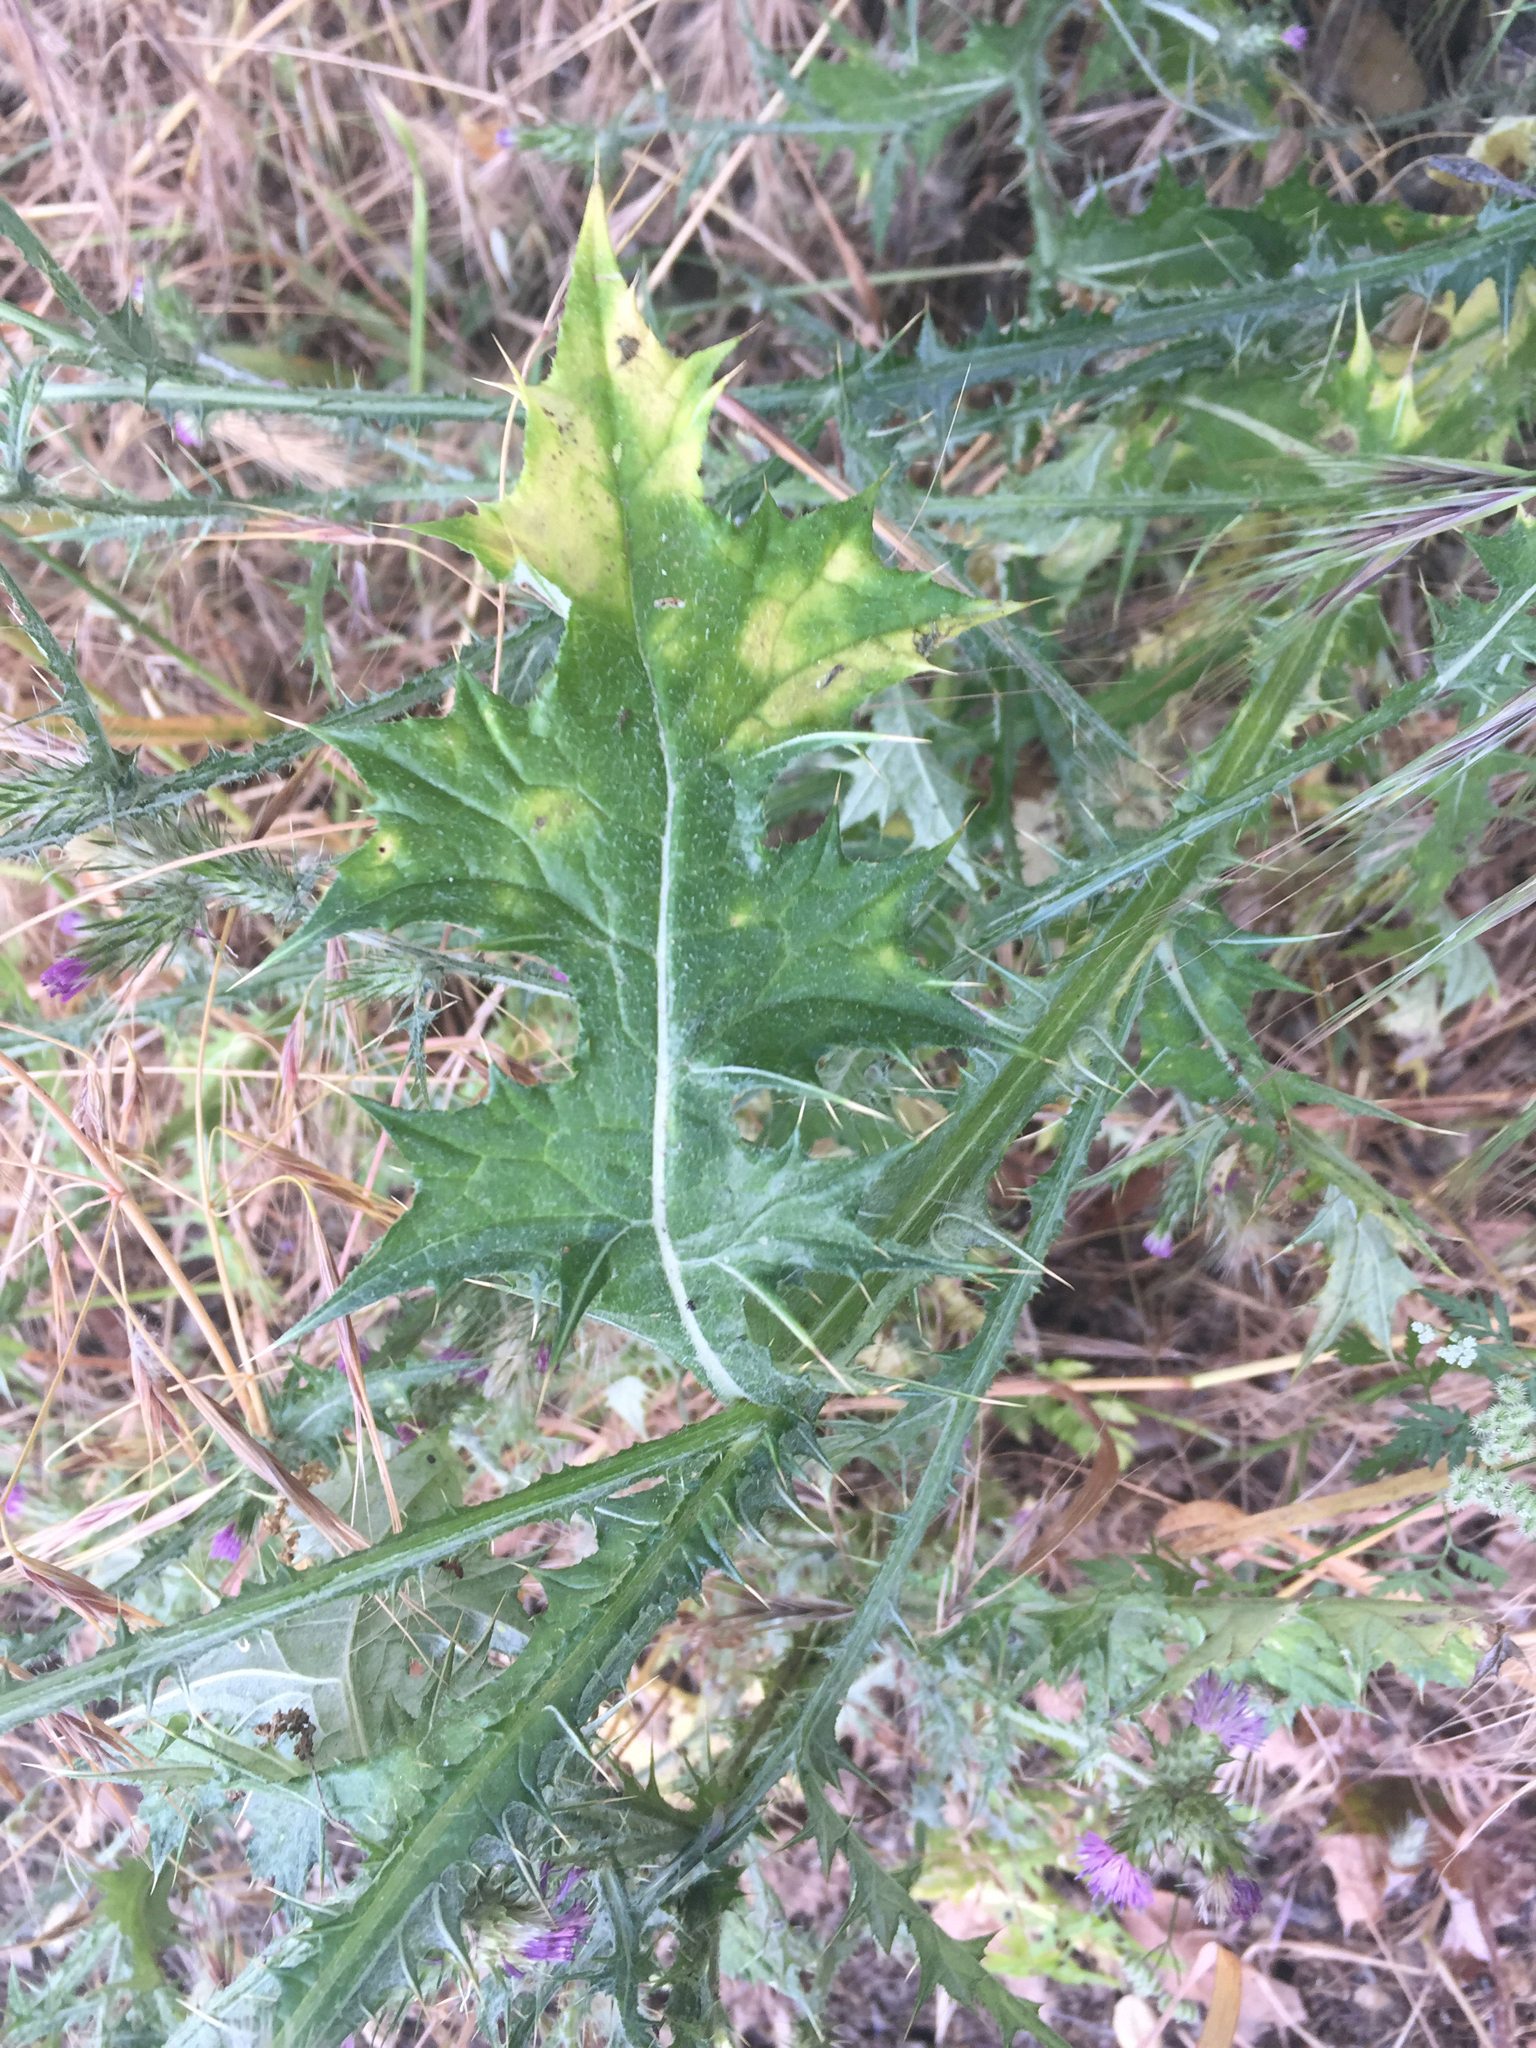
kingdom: Plantae
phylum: Tracheophyta
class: Magnoliopsida
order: Asterales
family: Asteraceae
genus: Carduus
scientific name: Carduus pycnocephalus
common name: Plymouth thistle
